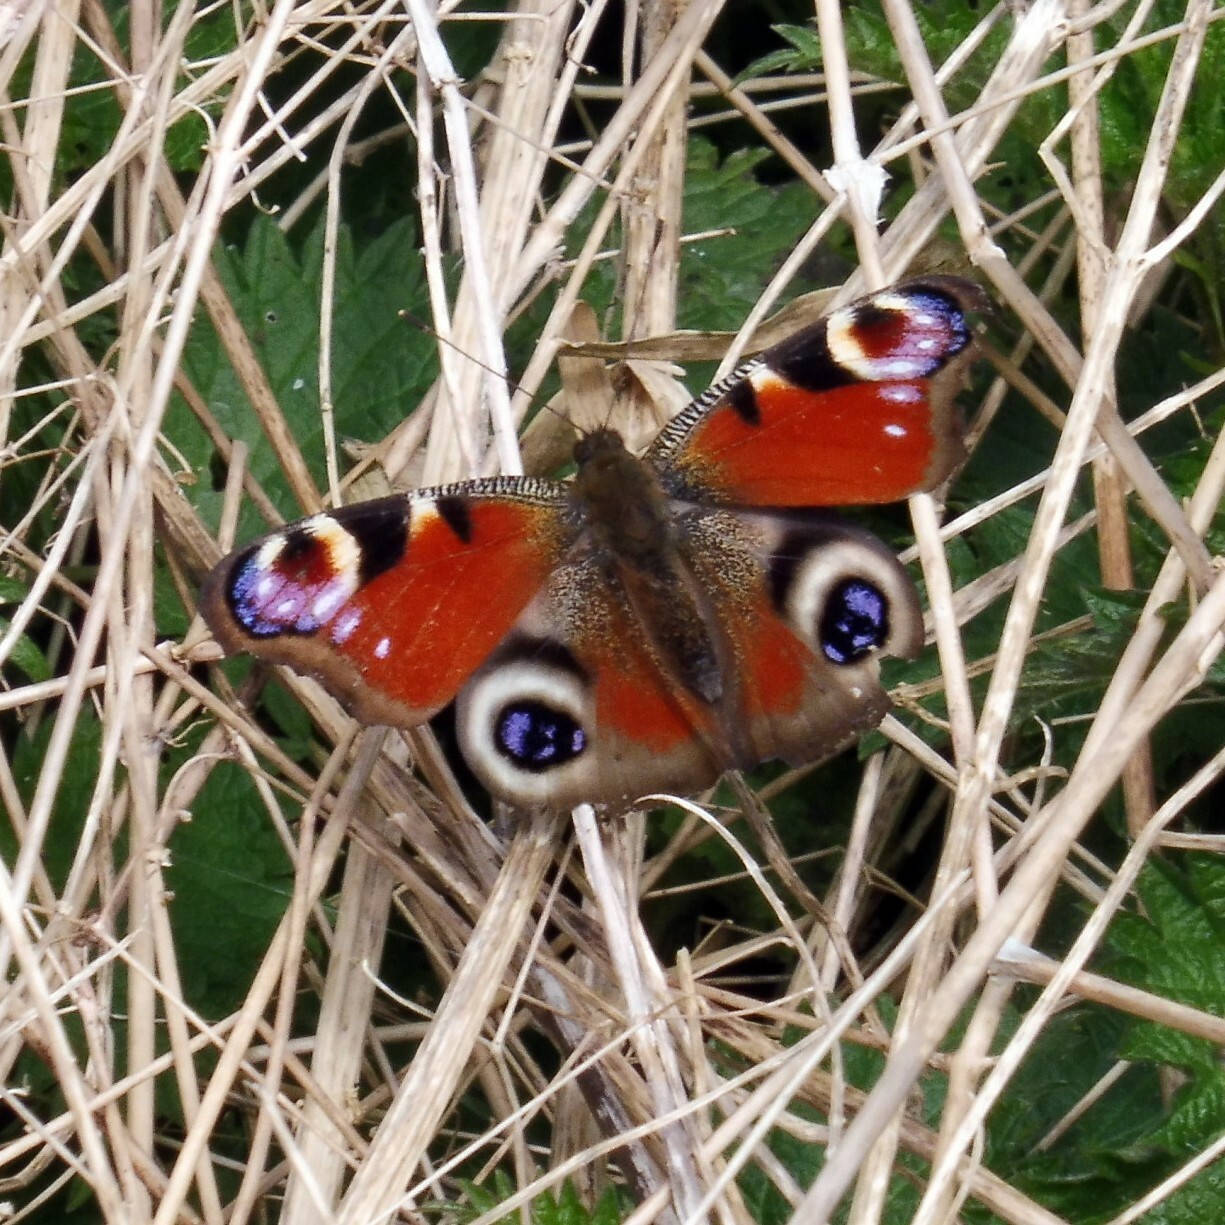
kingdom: Animalia
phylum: Arthropoda
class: Insecta
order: Lepidoptera
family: Nymphalidae
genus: Aglais
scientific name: Aglais io
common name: Peacock
